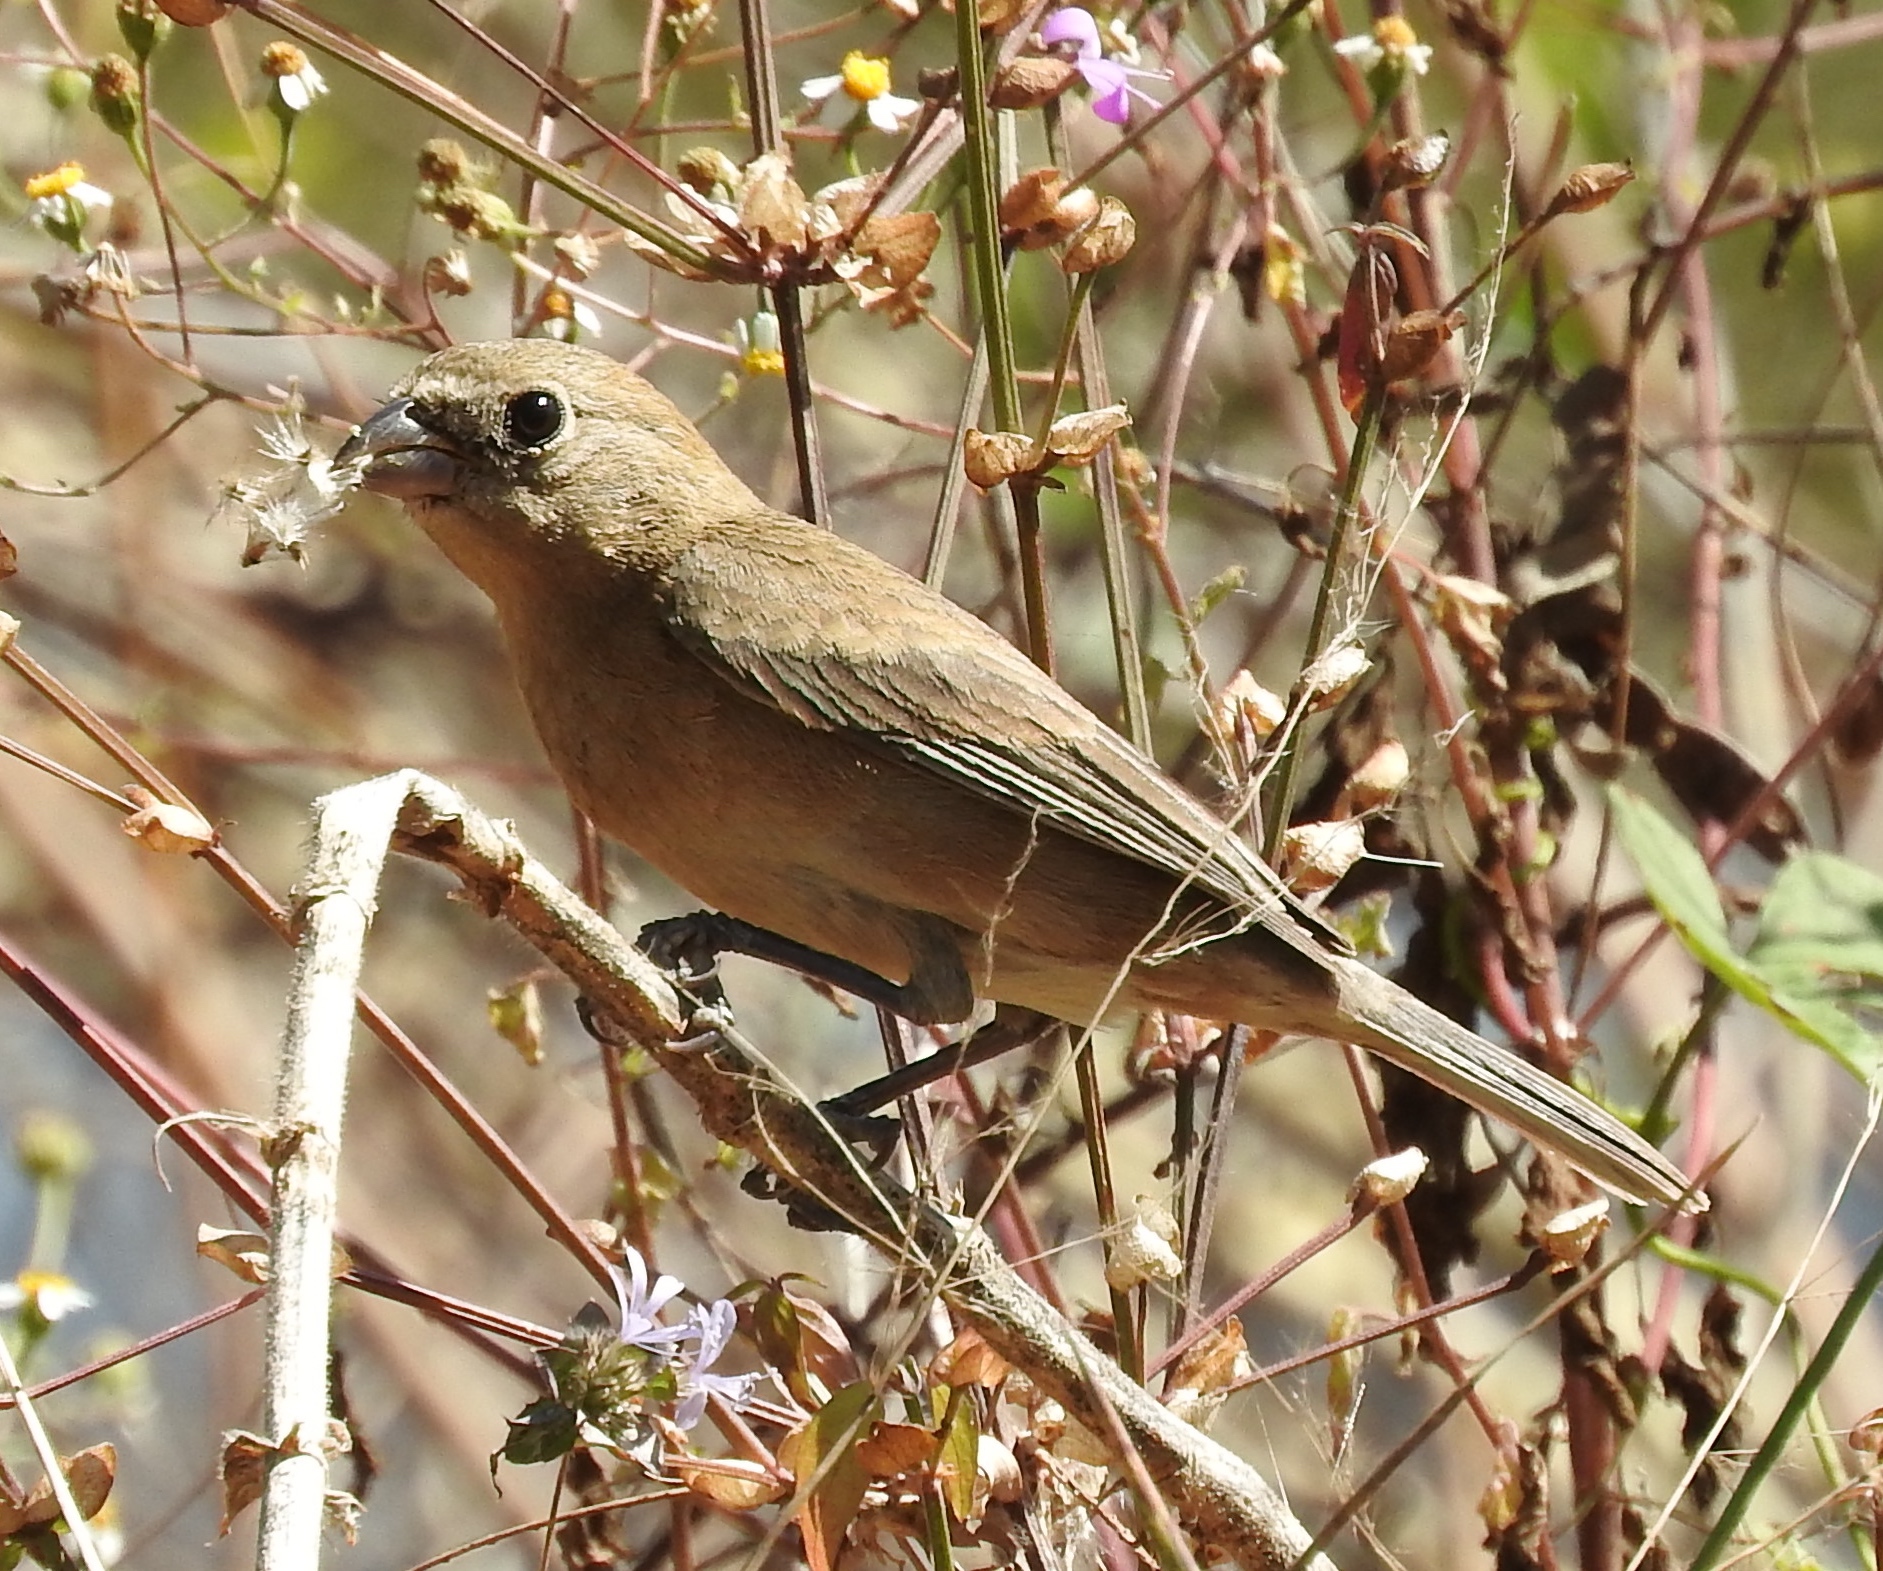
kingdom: Animalia
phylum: Chordata
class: Aves
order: Passeriformes
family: Cardinalidae
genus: Passerina
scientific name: Passerina versicolor
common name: Varied bunting
